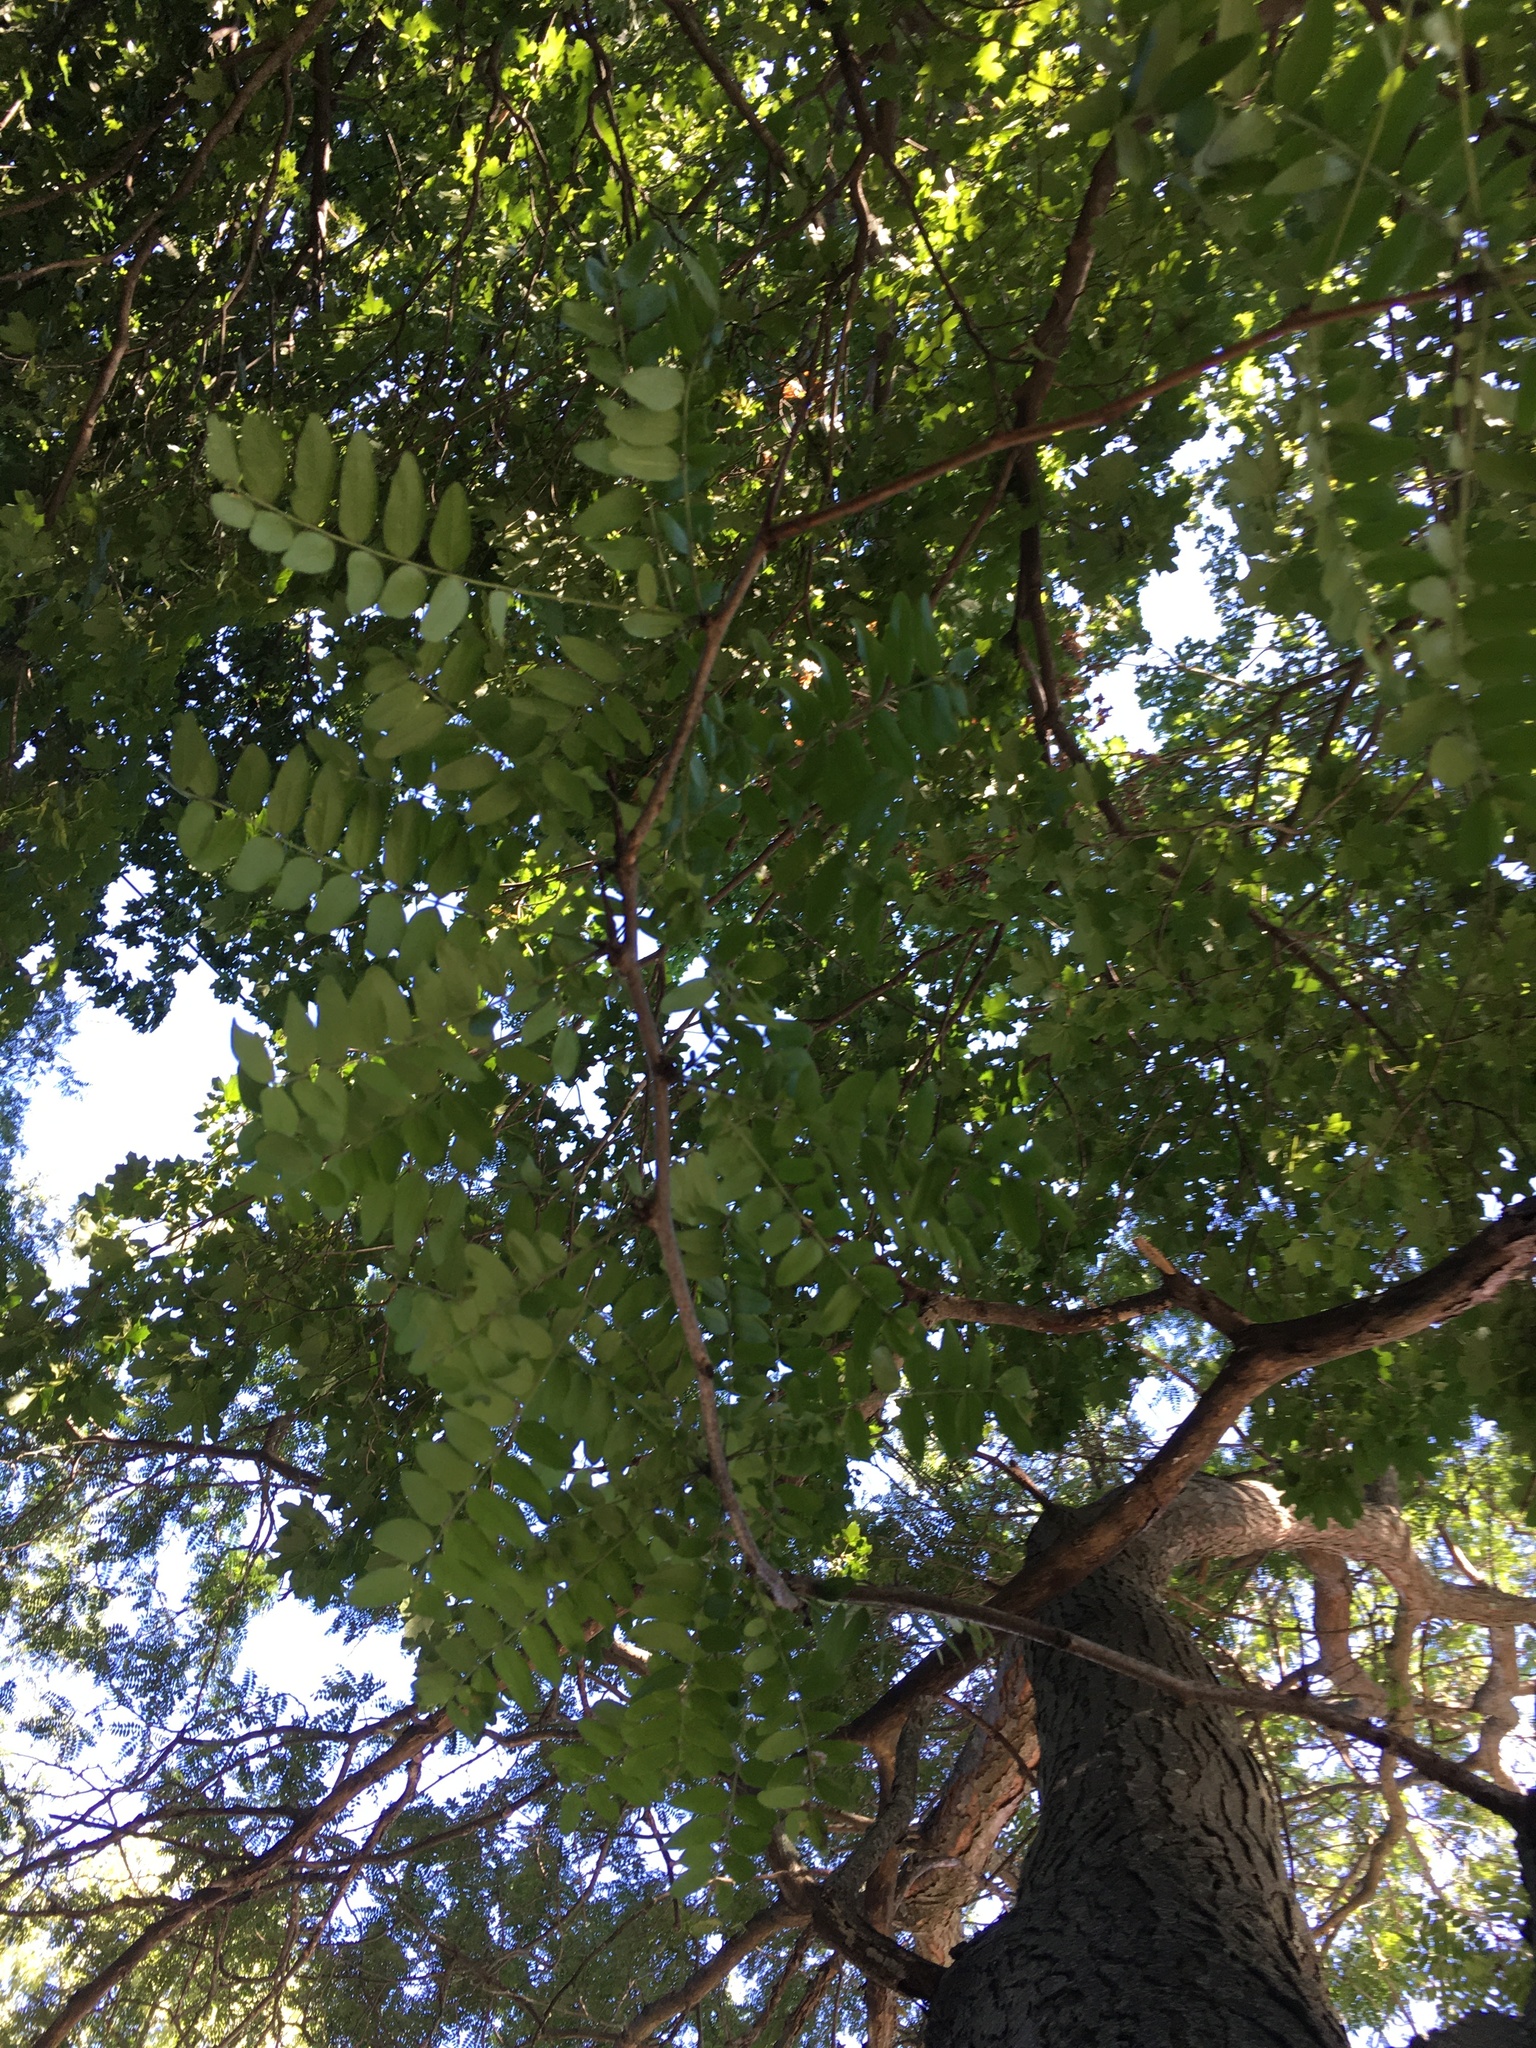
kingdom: Plantae
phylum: Tracheophyta
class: Magnoliopsida
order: Fabales
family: Fabaceae
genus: Robinia
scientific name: Robinia pseudoacacia
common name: Black locust
